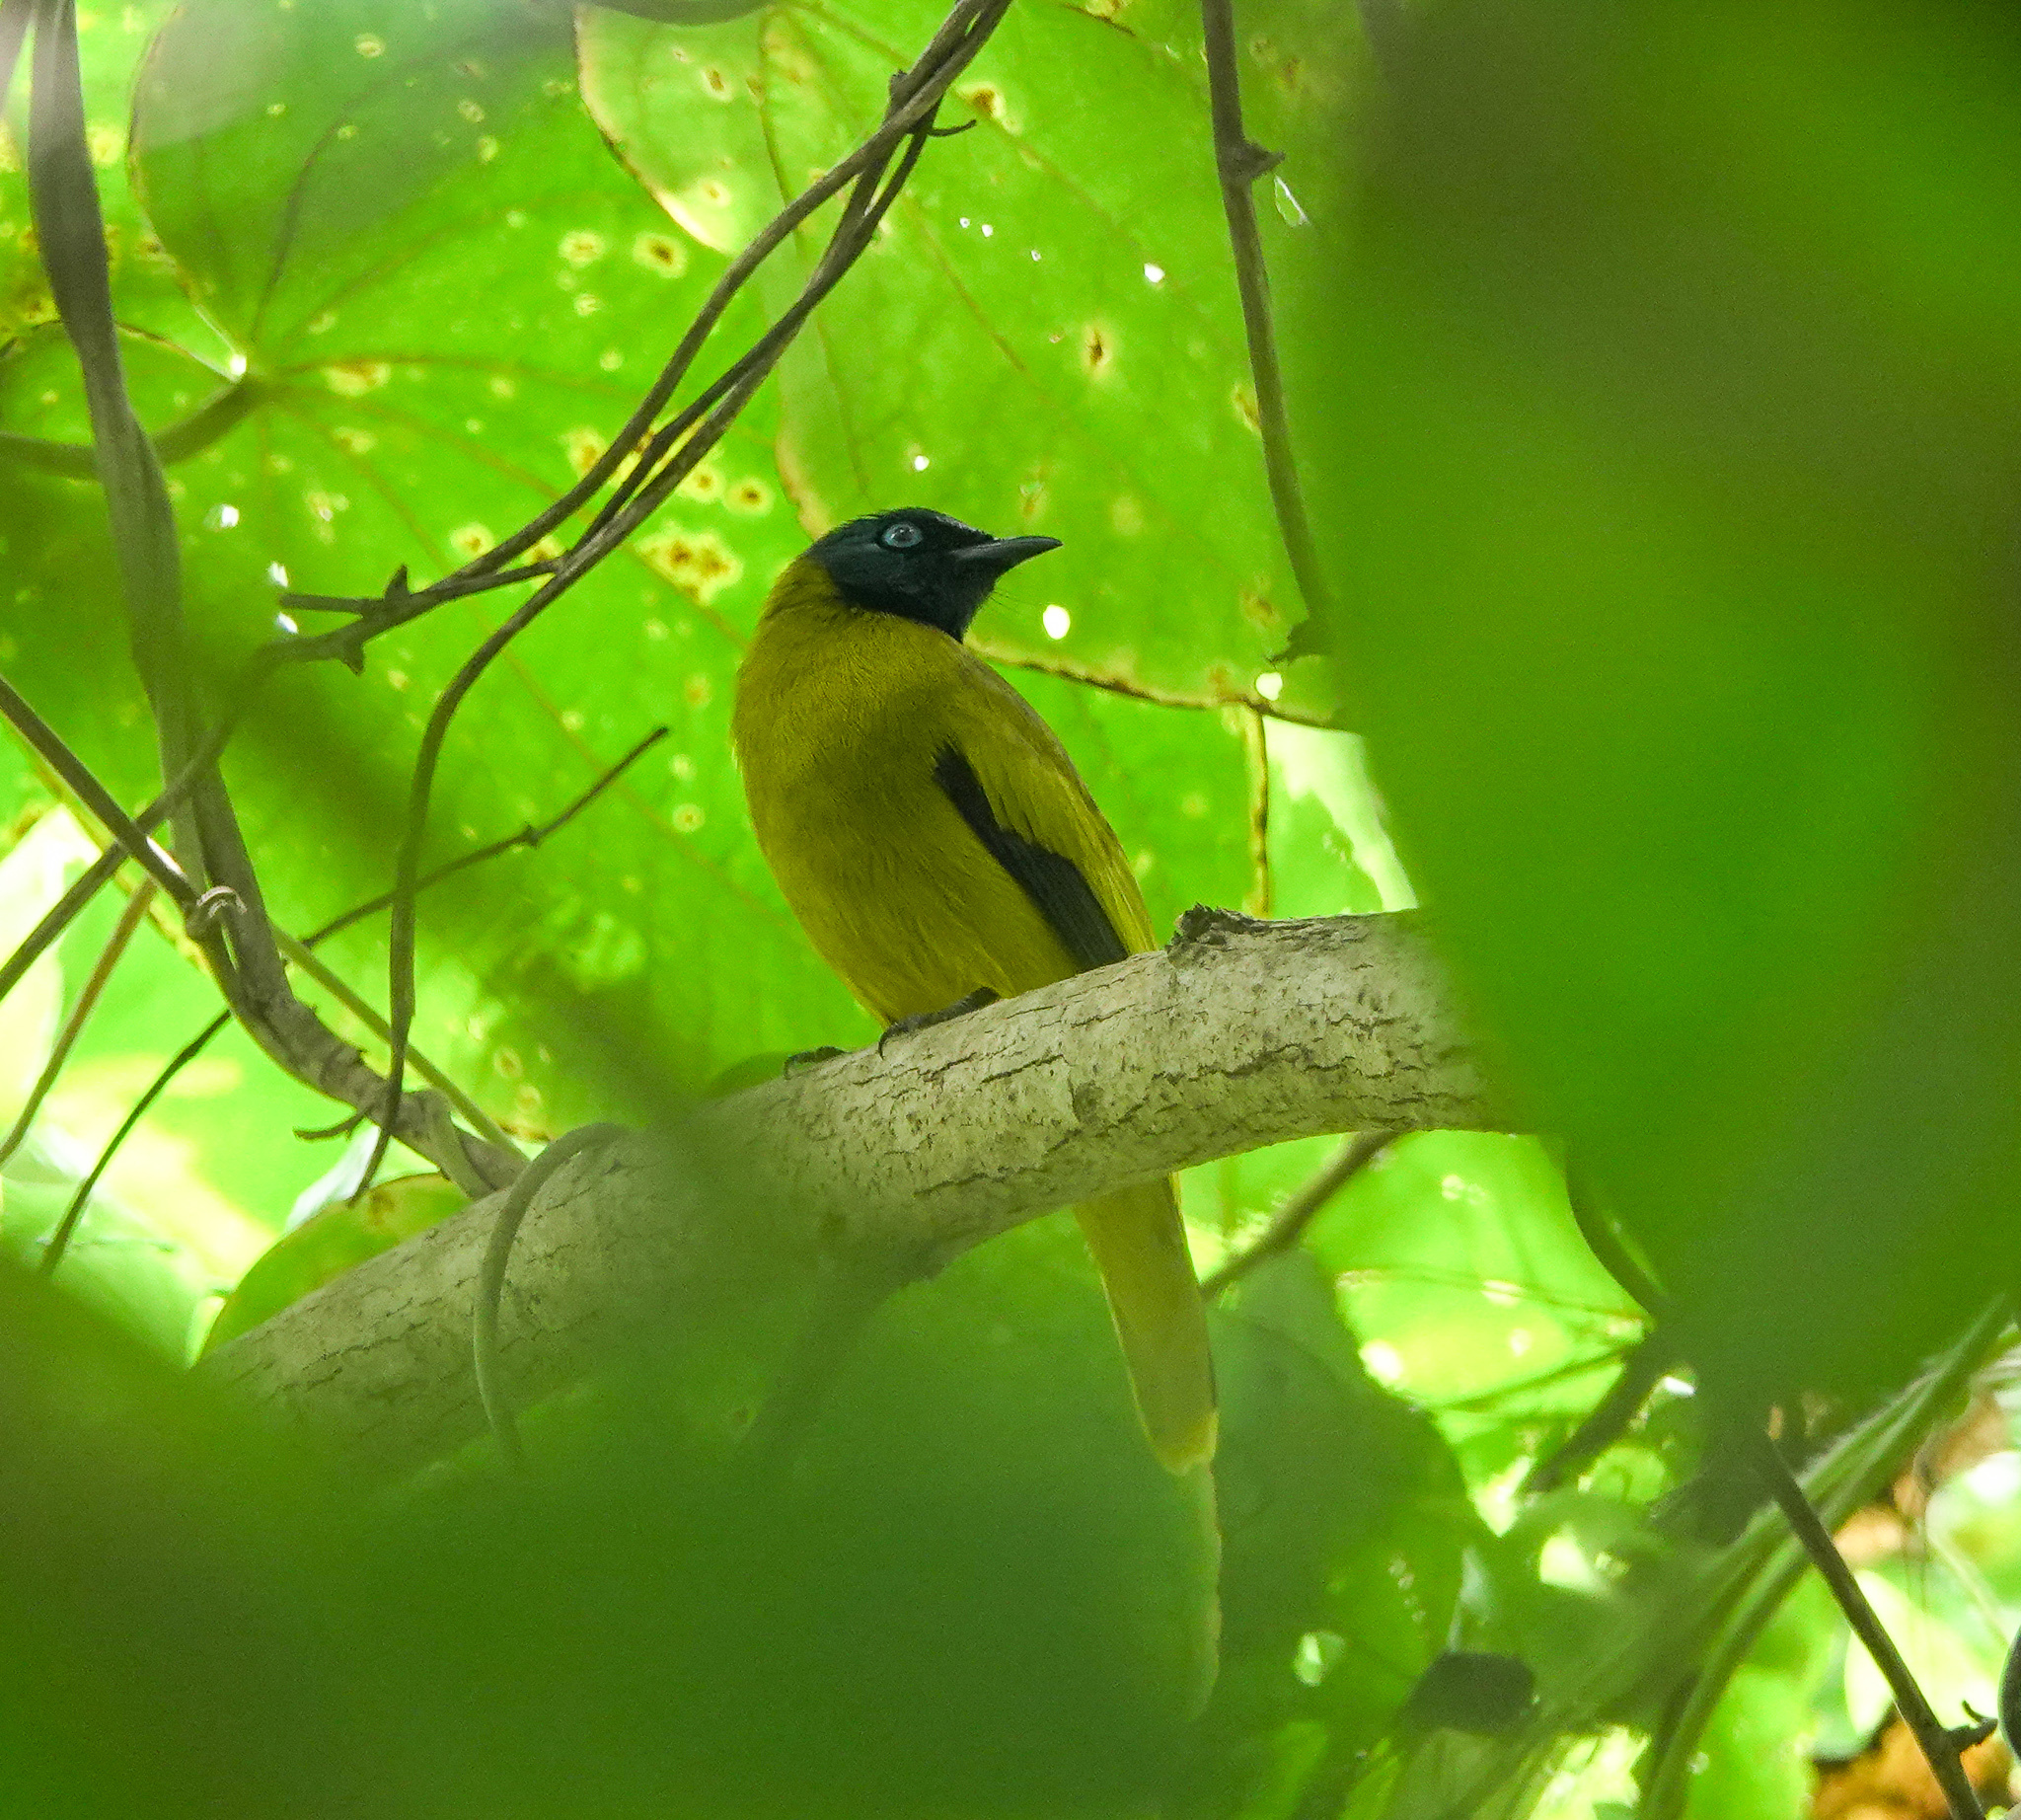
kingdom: Animalia
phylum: Chordata
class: Aves
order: Passeriformes
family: Pycnonotidae
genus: Microtarsus
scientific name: Microtarsus
